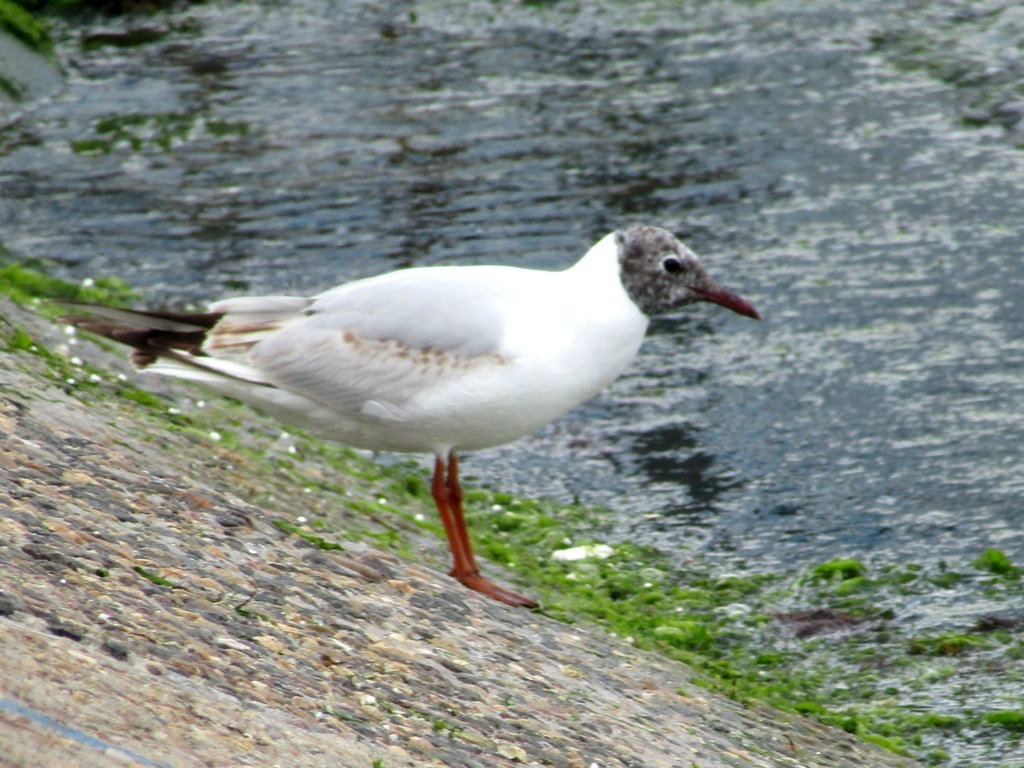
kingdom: Animalia
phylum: Chordata
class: Aves
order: Charadriiformes
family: Laridae
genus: Chroicocephalus
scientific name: Chroicocephalus ridibundus
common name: Black-headed gull
